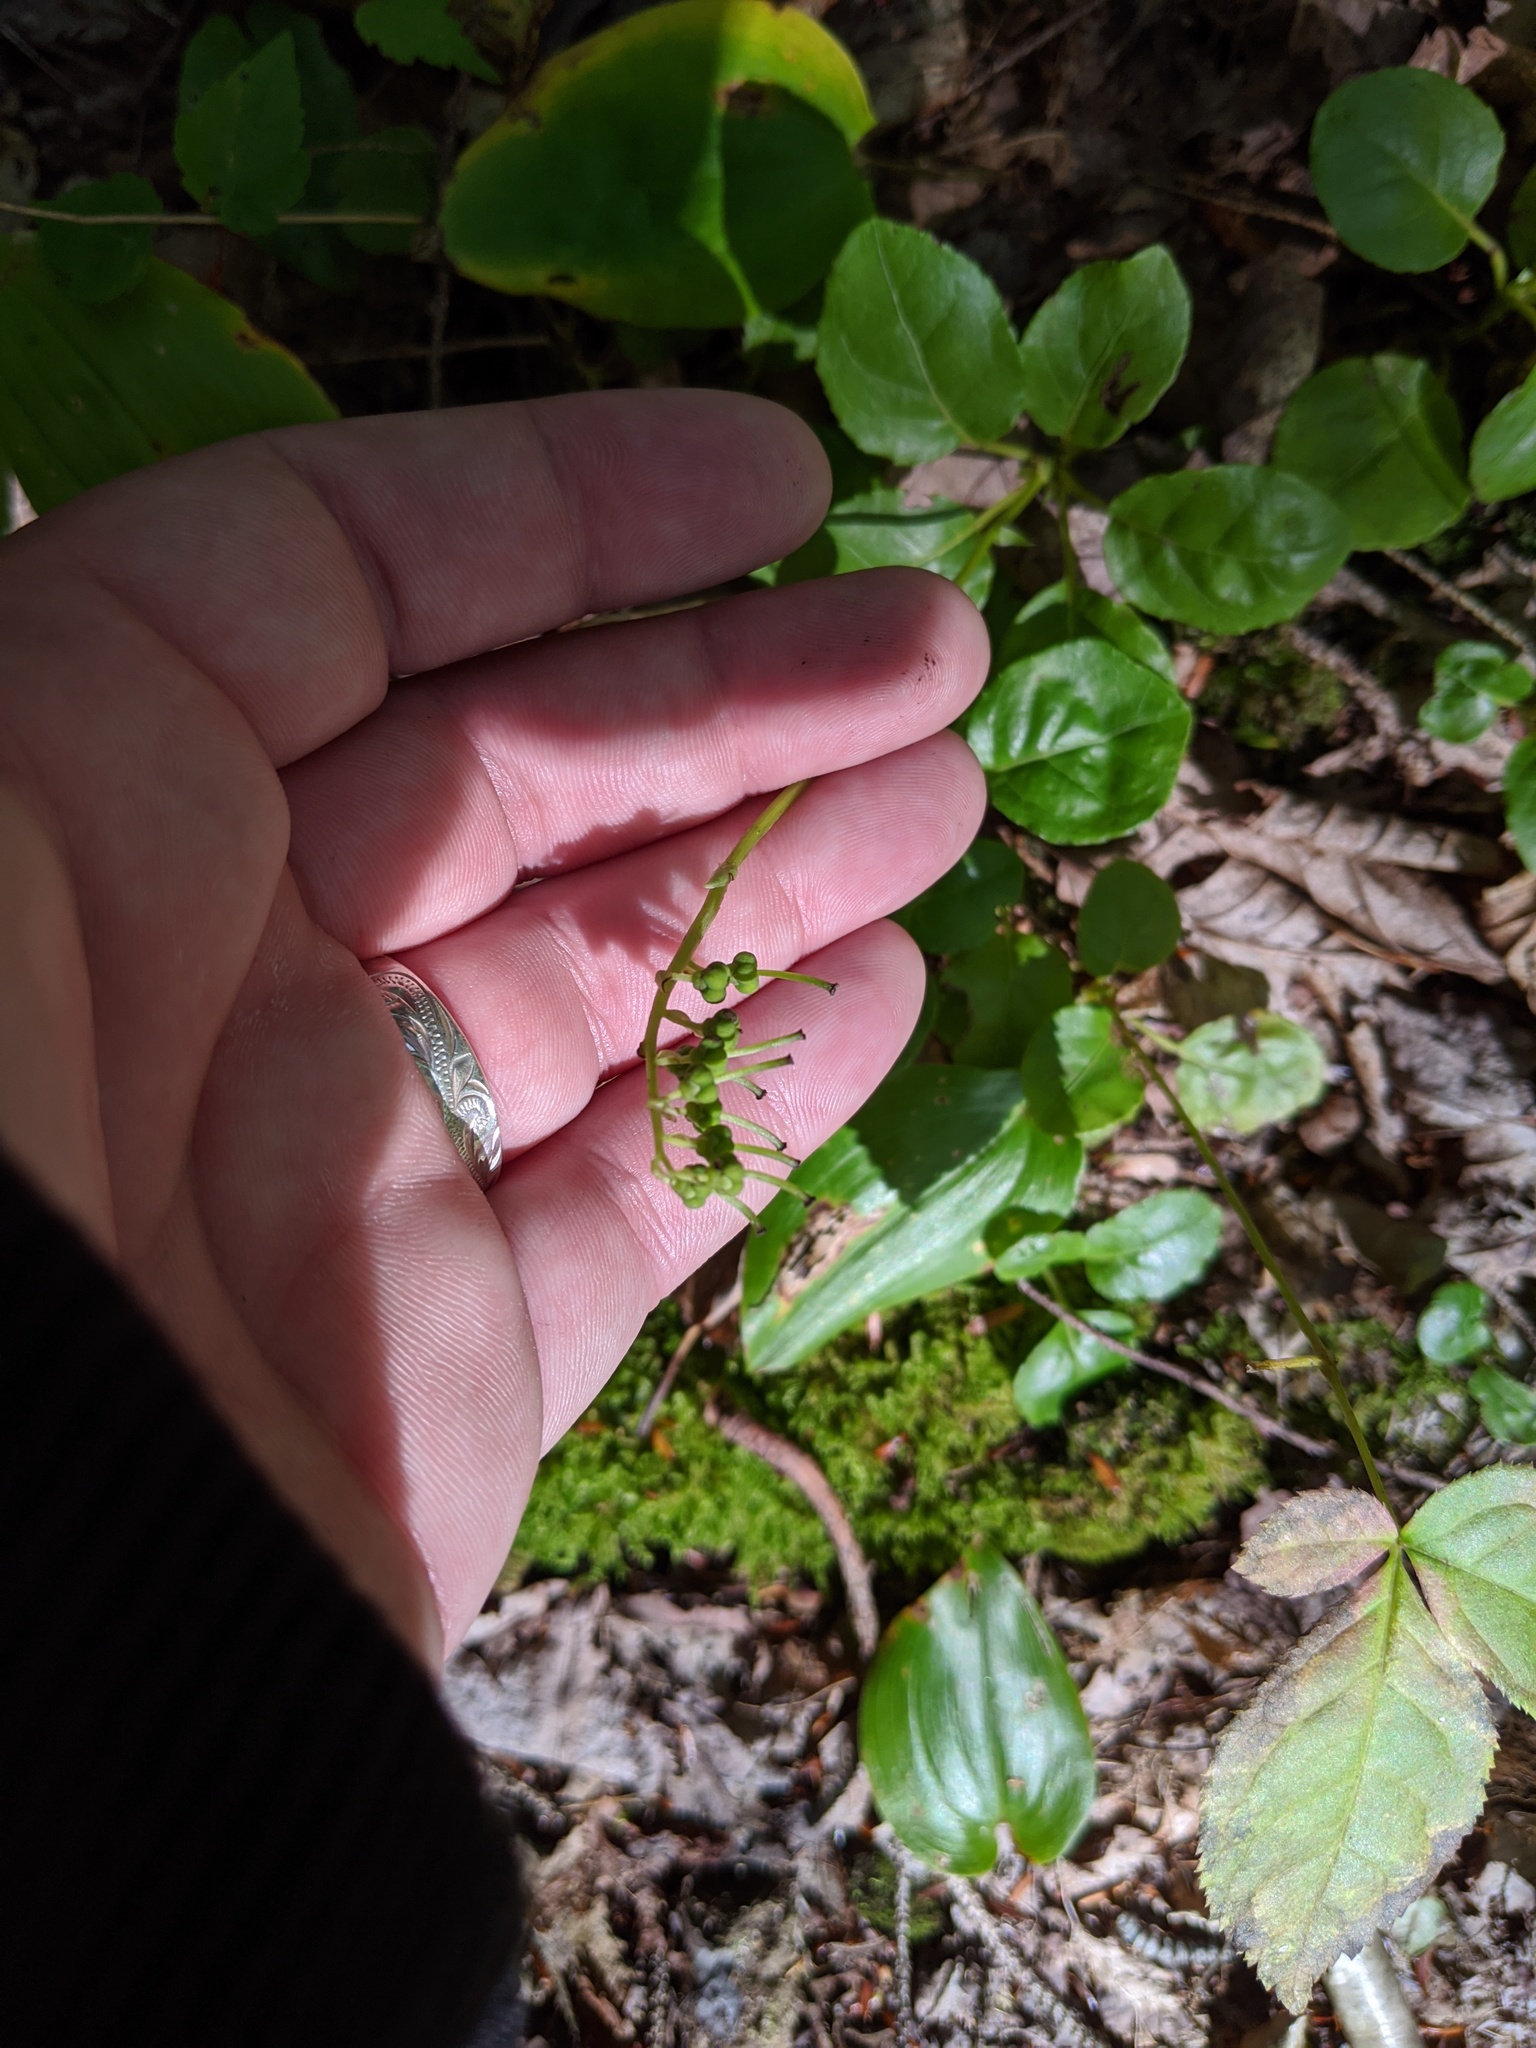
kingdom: Plantae
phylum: Tracheophyta
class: Magnoliopsida
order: Ericales
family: Ericaceae
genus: Orthilia
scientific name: Orthilia secunda
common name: One-sided orthilia
